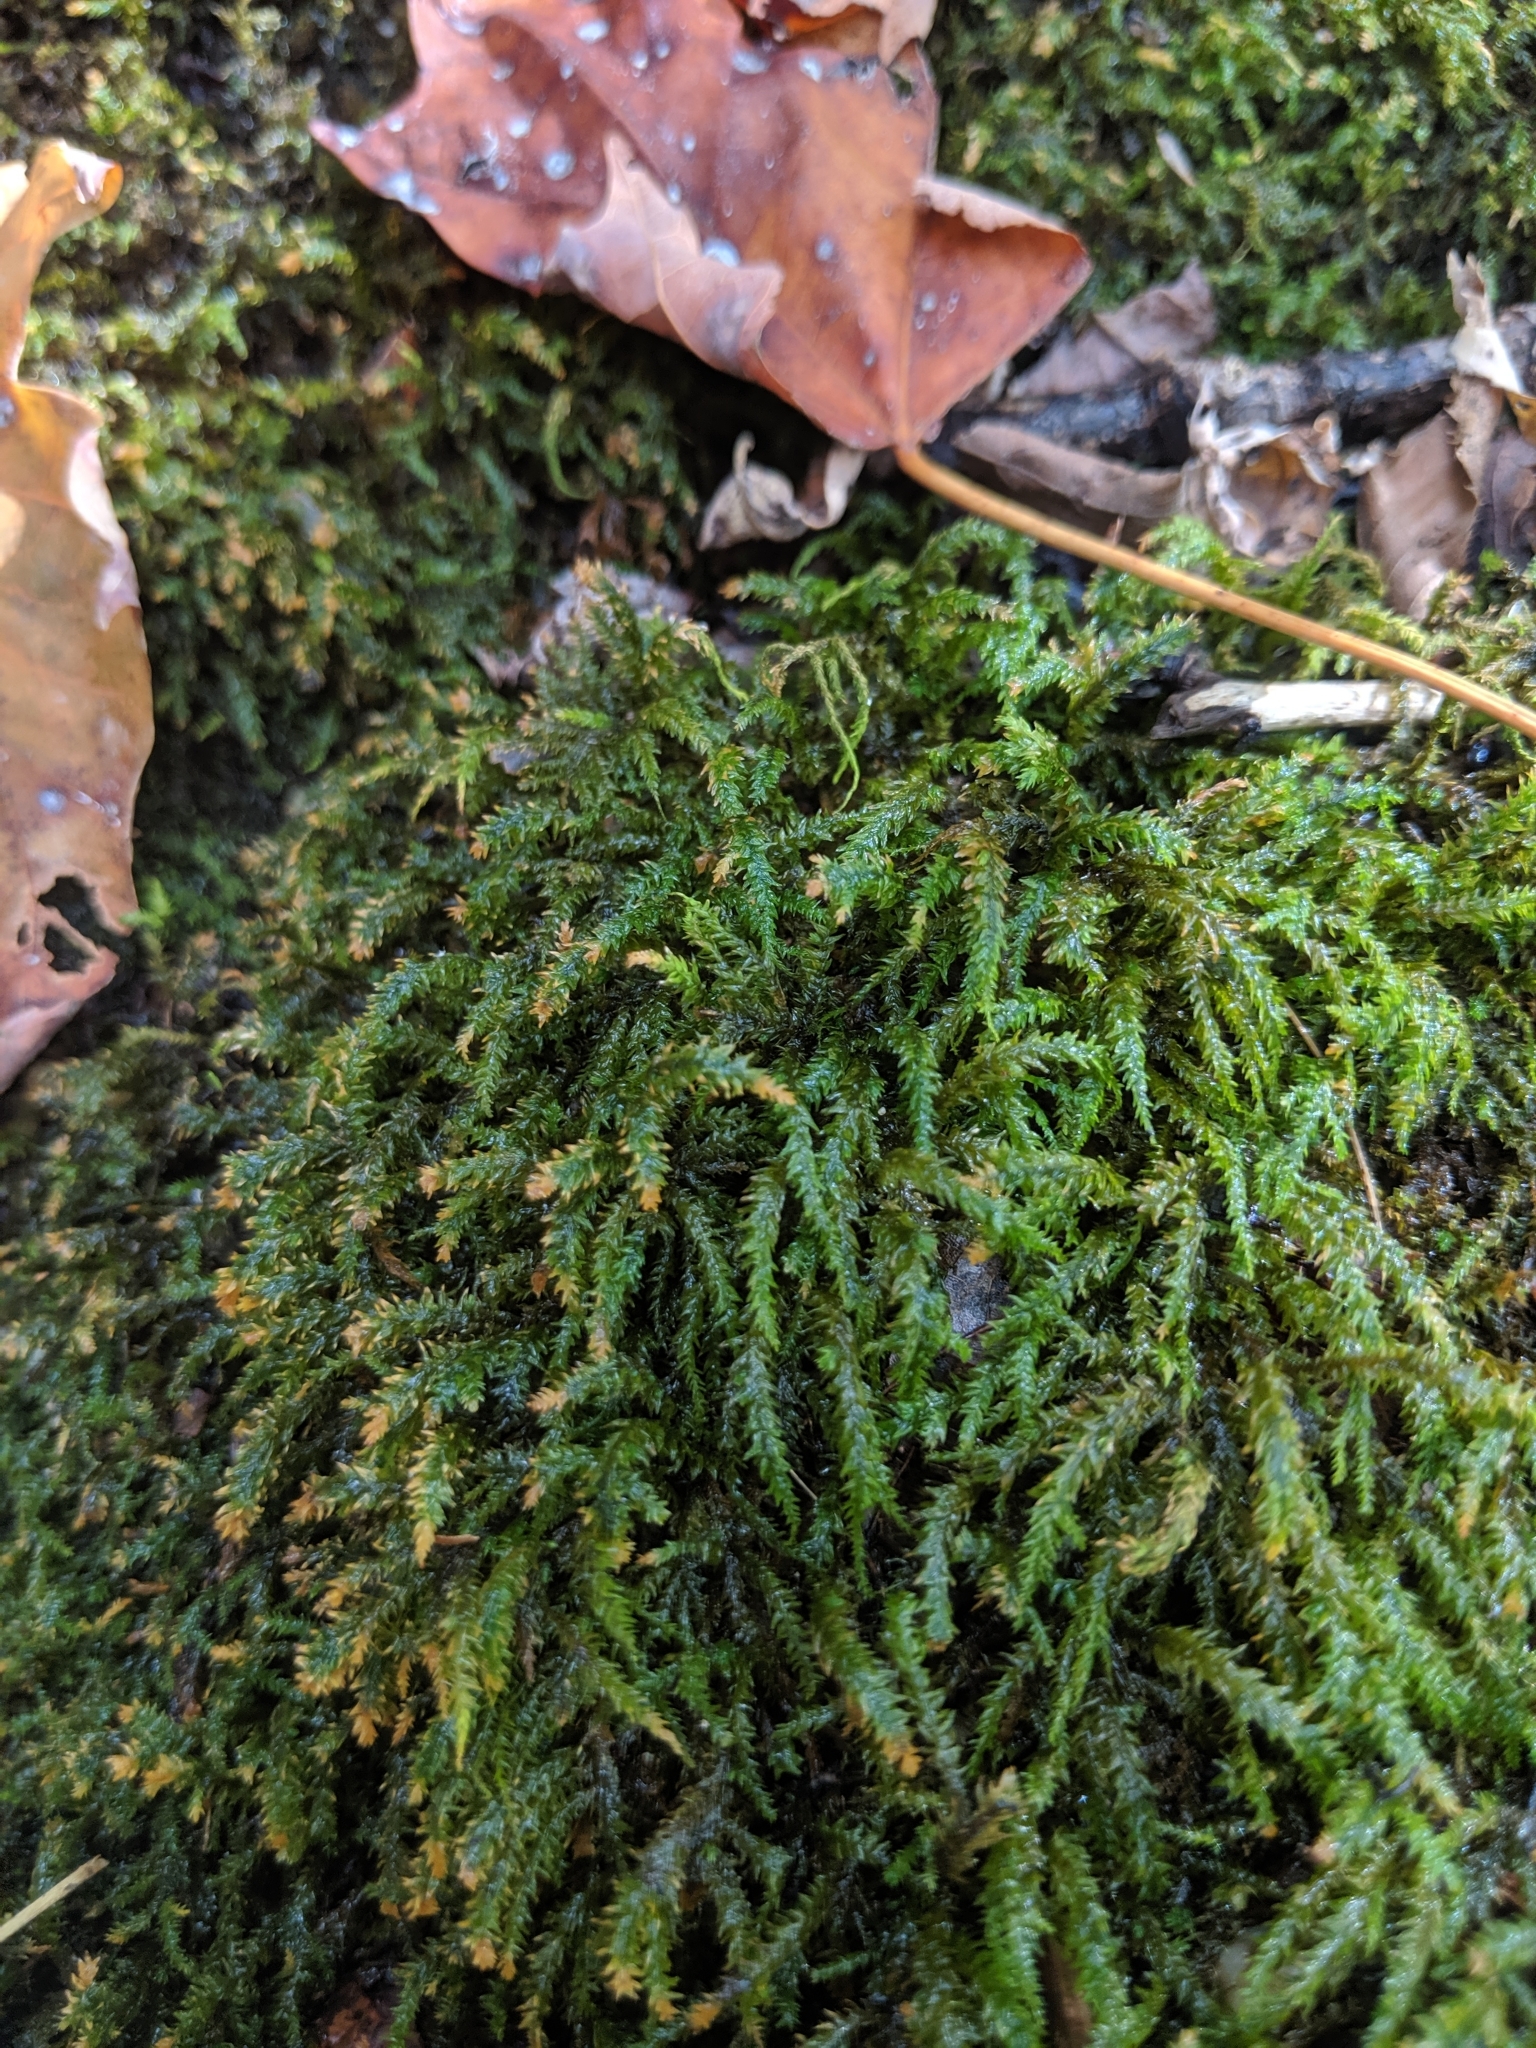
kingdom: Plantae
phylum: Bryophyta
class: Bryopsida
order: Hypnales
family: Neckeraceae
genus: Pseudanomodon
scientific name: Pseudanomodon attenuatus
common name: Tree-skirt moss
